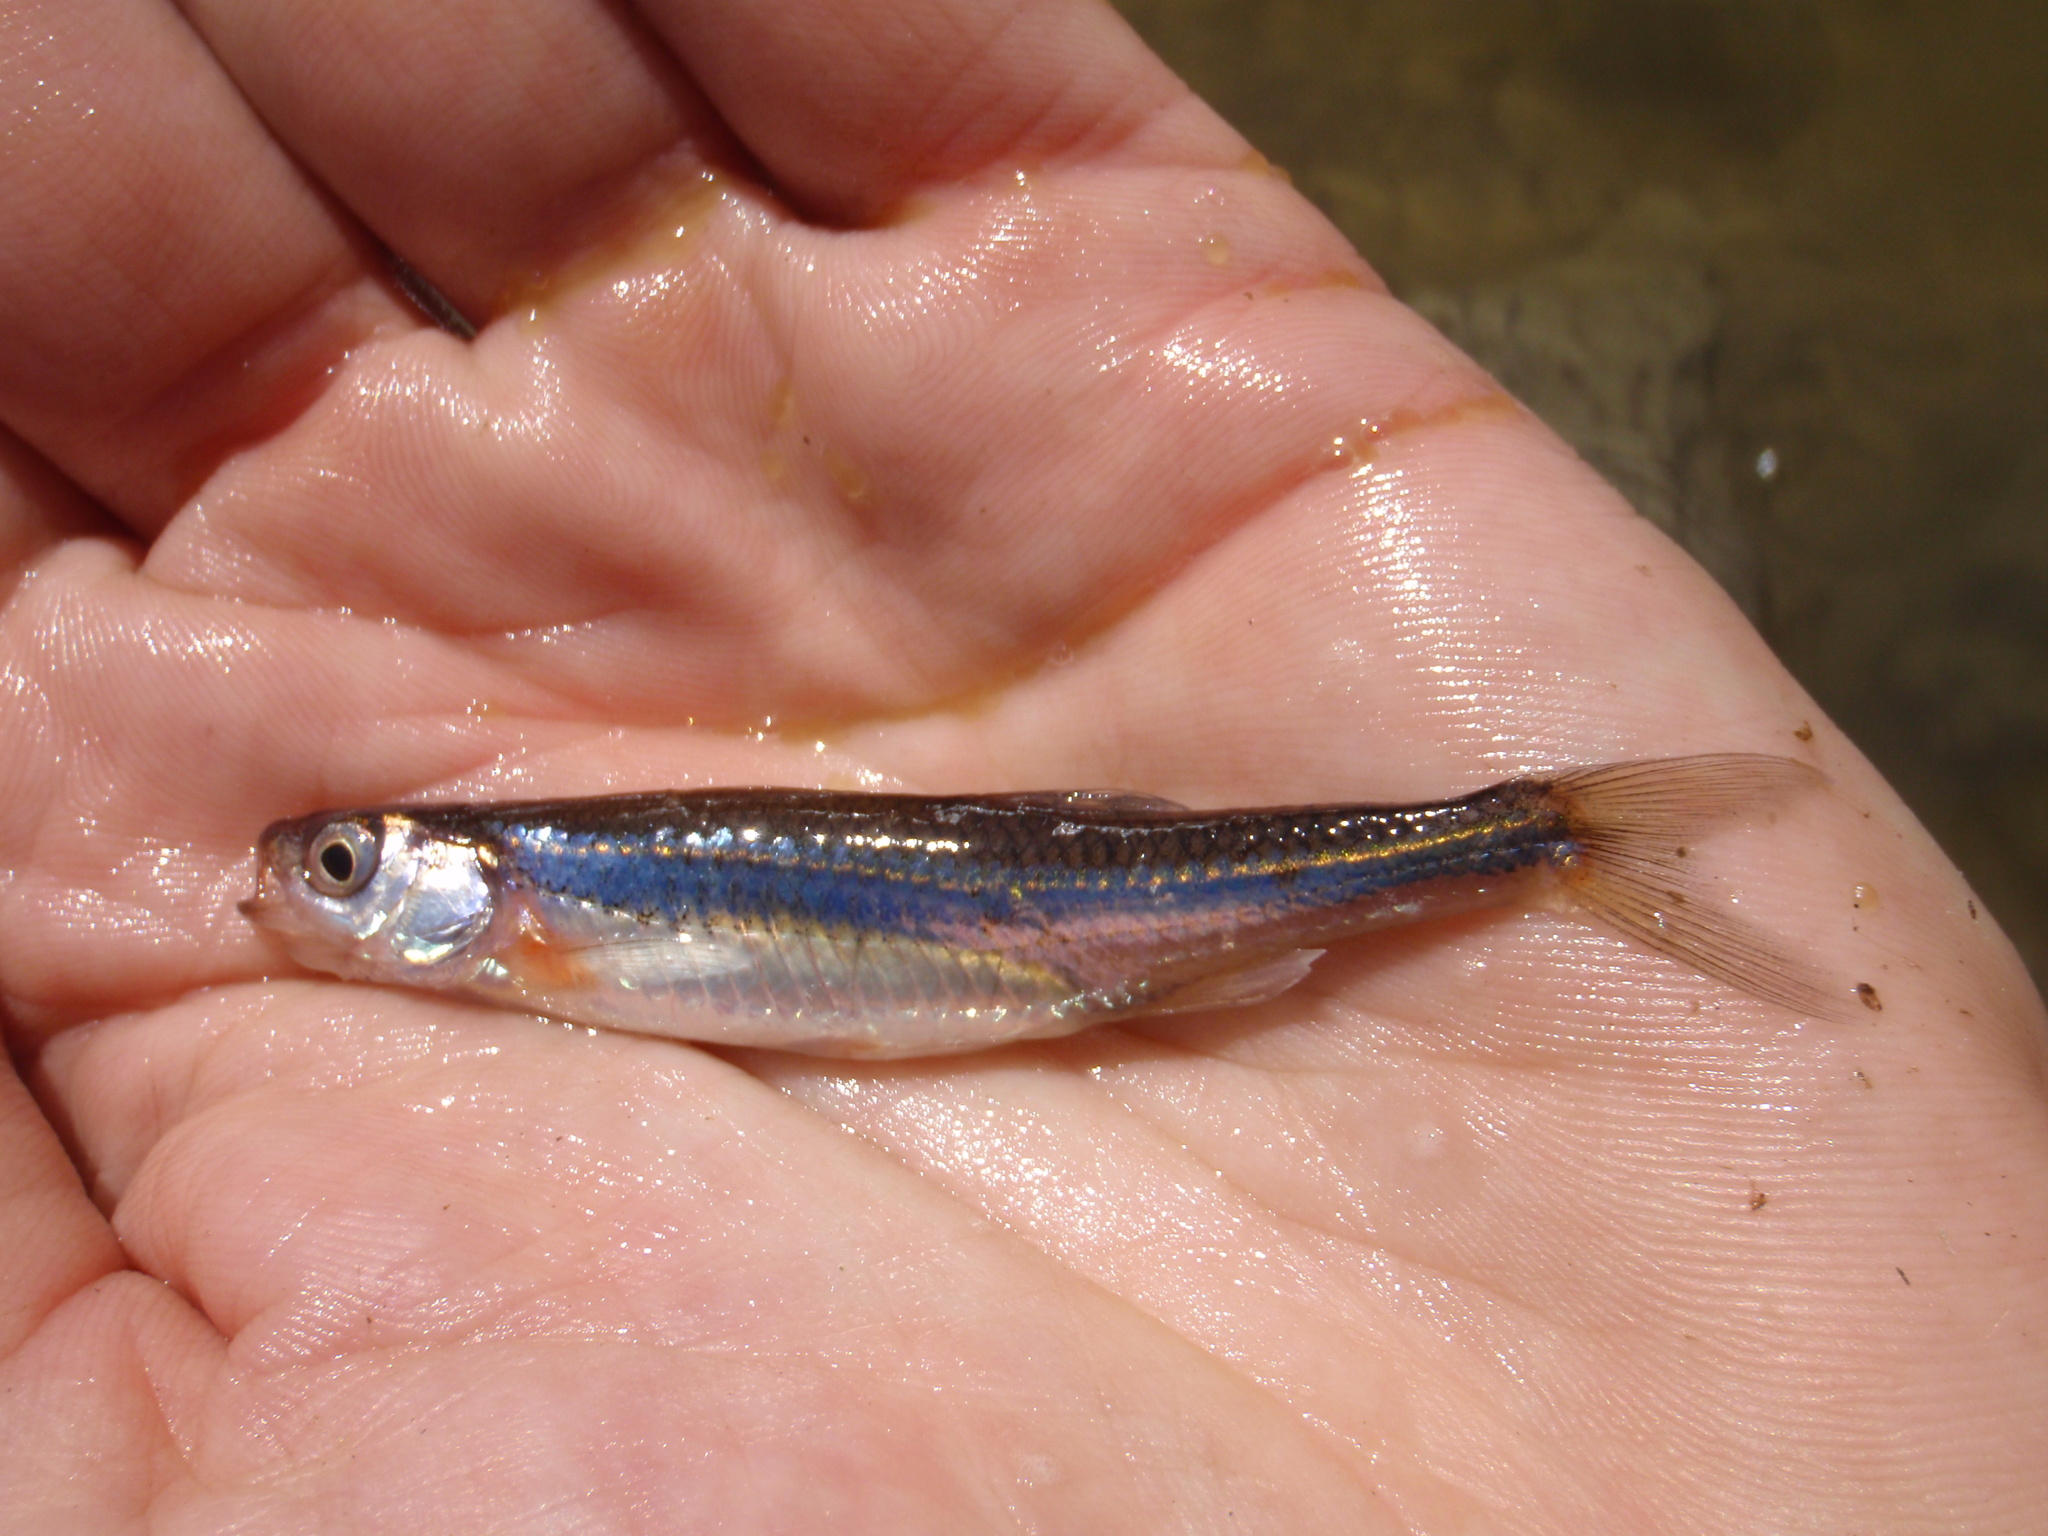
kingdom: Animalia
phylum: Chordata
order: Cypriniformes
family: Cyprinidae
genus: Notropis
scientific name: Notropis rubellus
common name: Rosyface shiner
